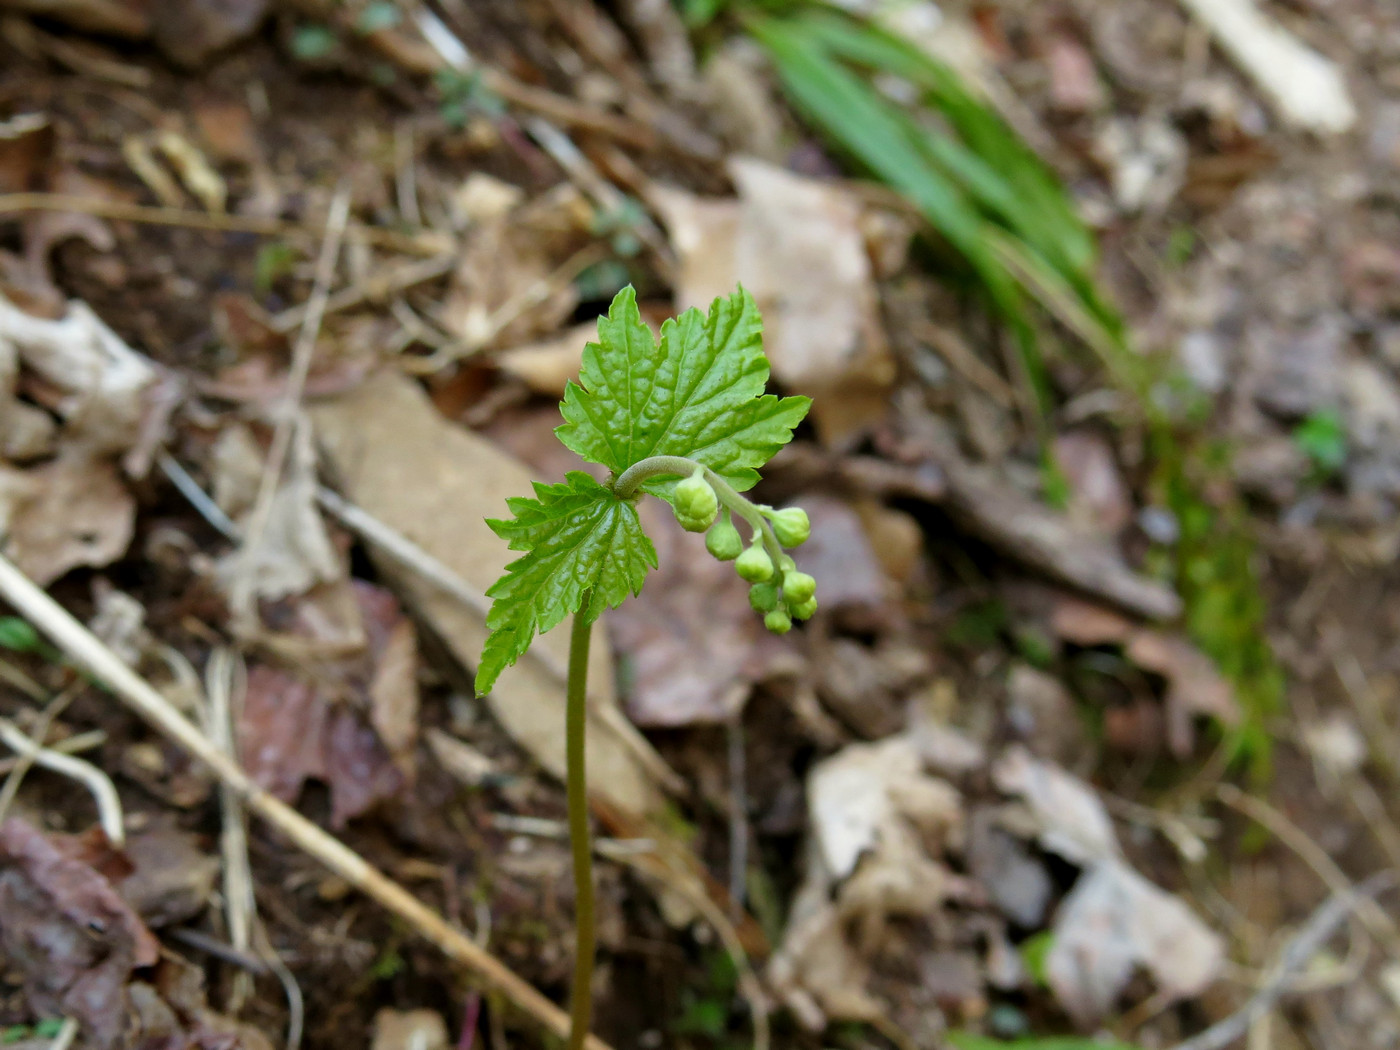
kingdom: Plantae
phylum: Tracheophyta
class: Magnoliopsida
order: Saxifragales
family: Saxifragaceae
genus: Mitella
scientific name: Mitella diphylla
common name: Coolwort
